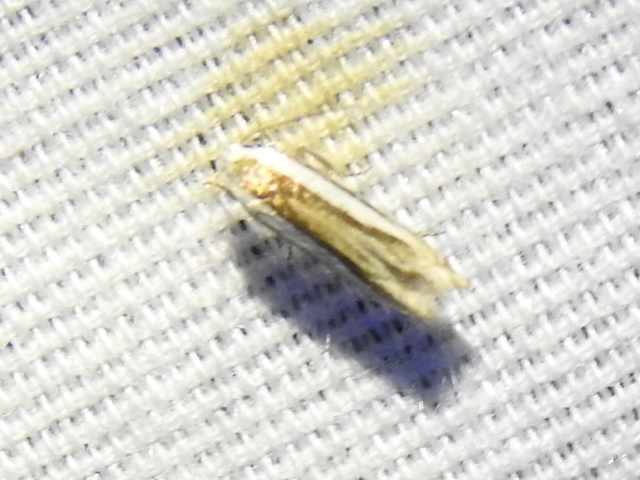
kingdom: Animalia
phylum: Arthropoda
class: Insecta
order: Lepidoptera
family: Gelechiidae
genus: Polyhymno
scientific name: Polyhymno acaciella
